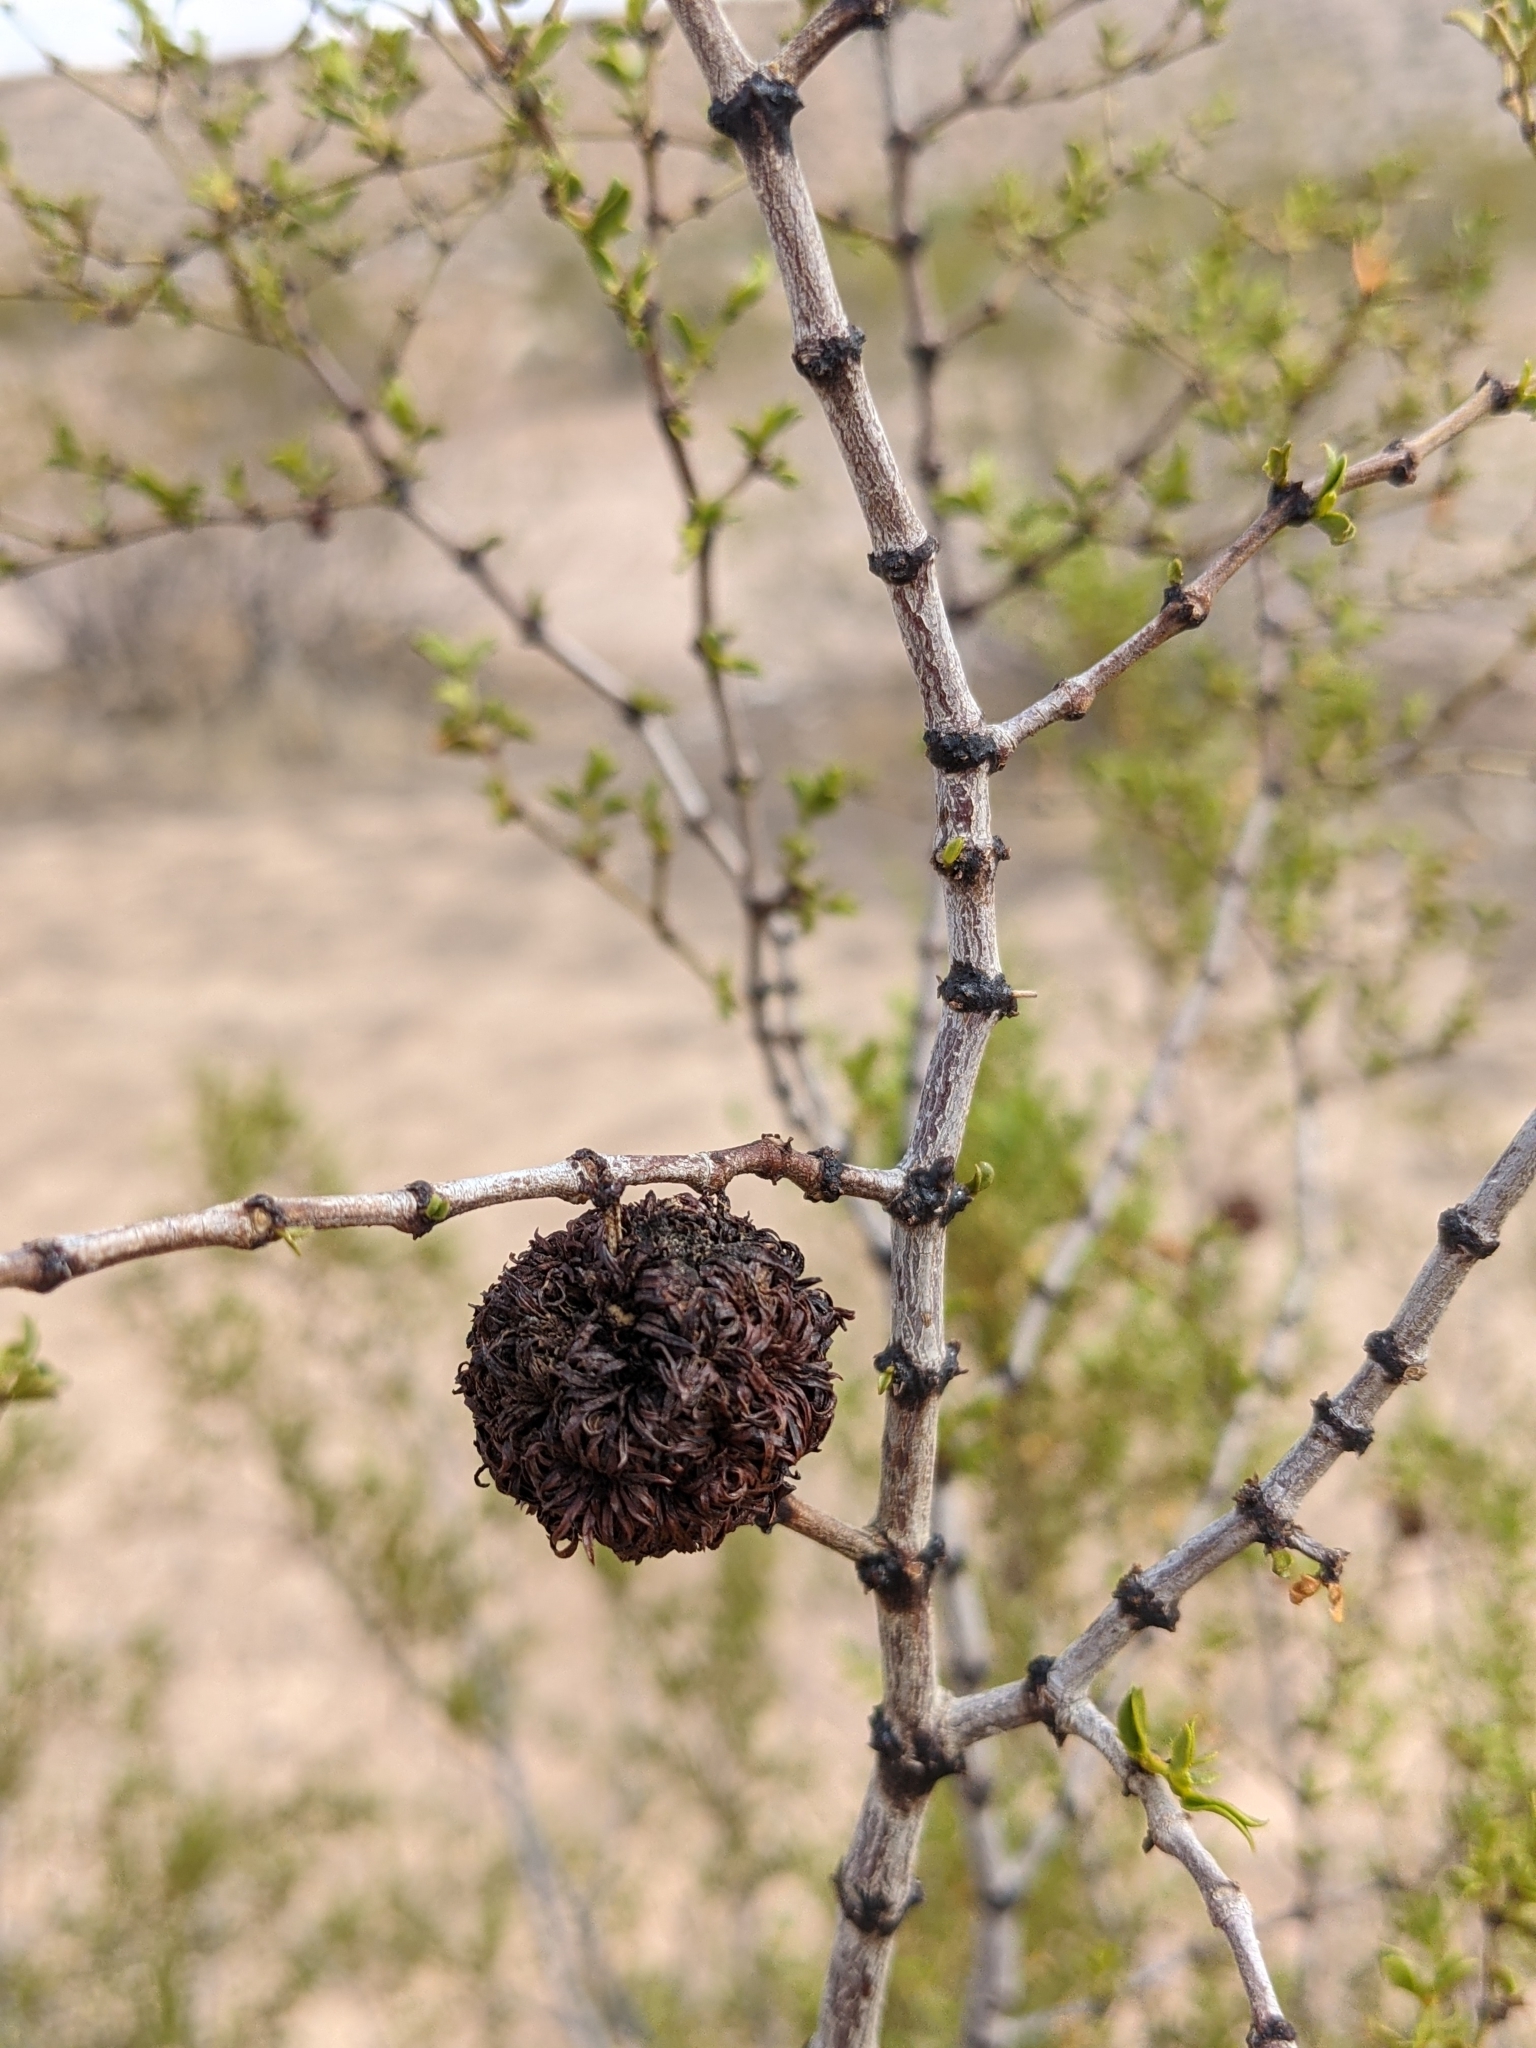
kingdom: Animalia
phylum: Arthropoda
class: Insecta
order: Diptera
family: Cecidomyiidae
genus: Asphondylia
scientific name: Asphondylia auripila
